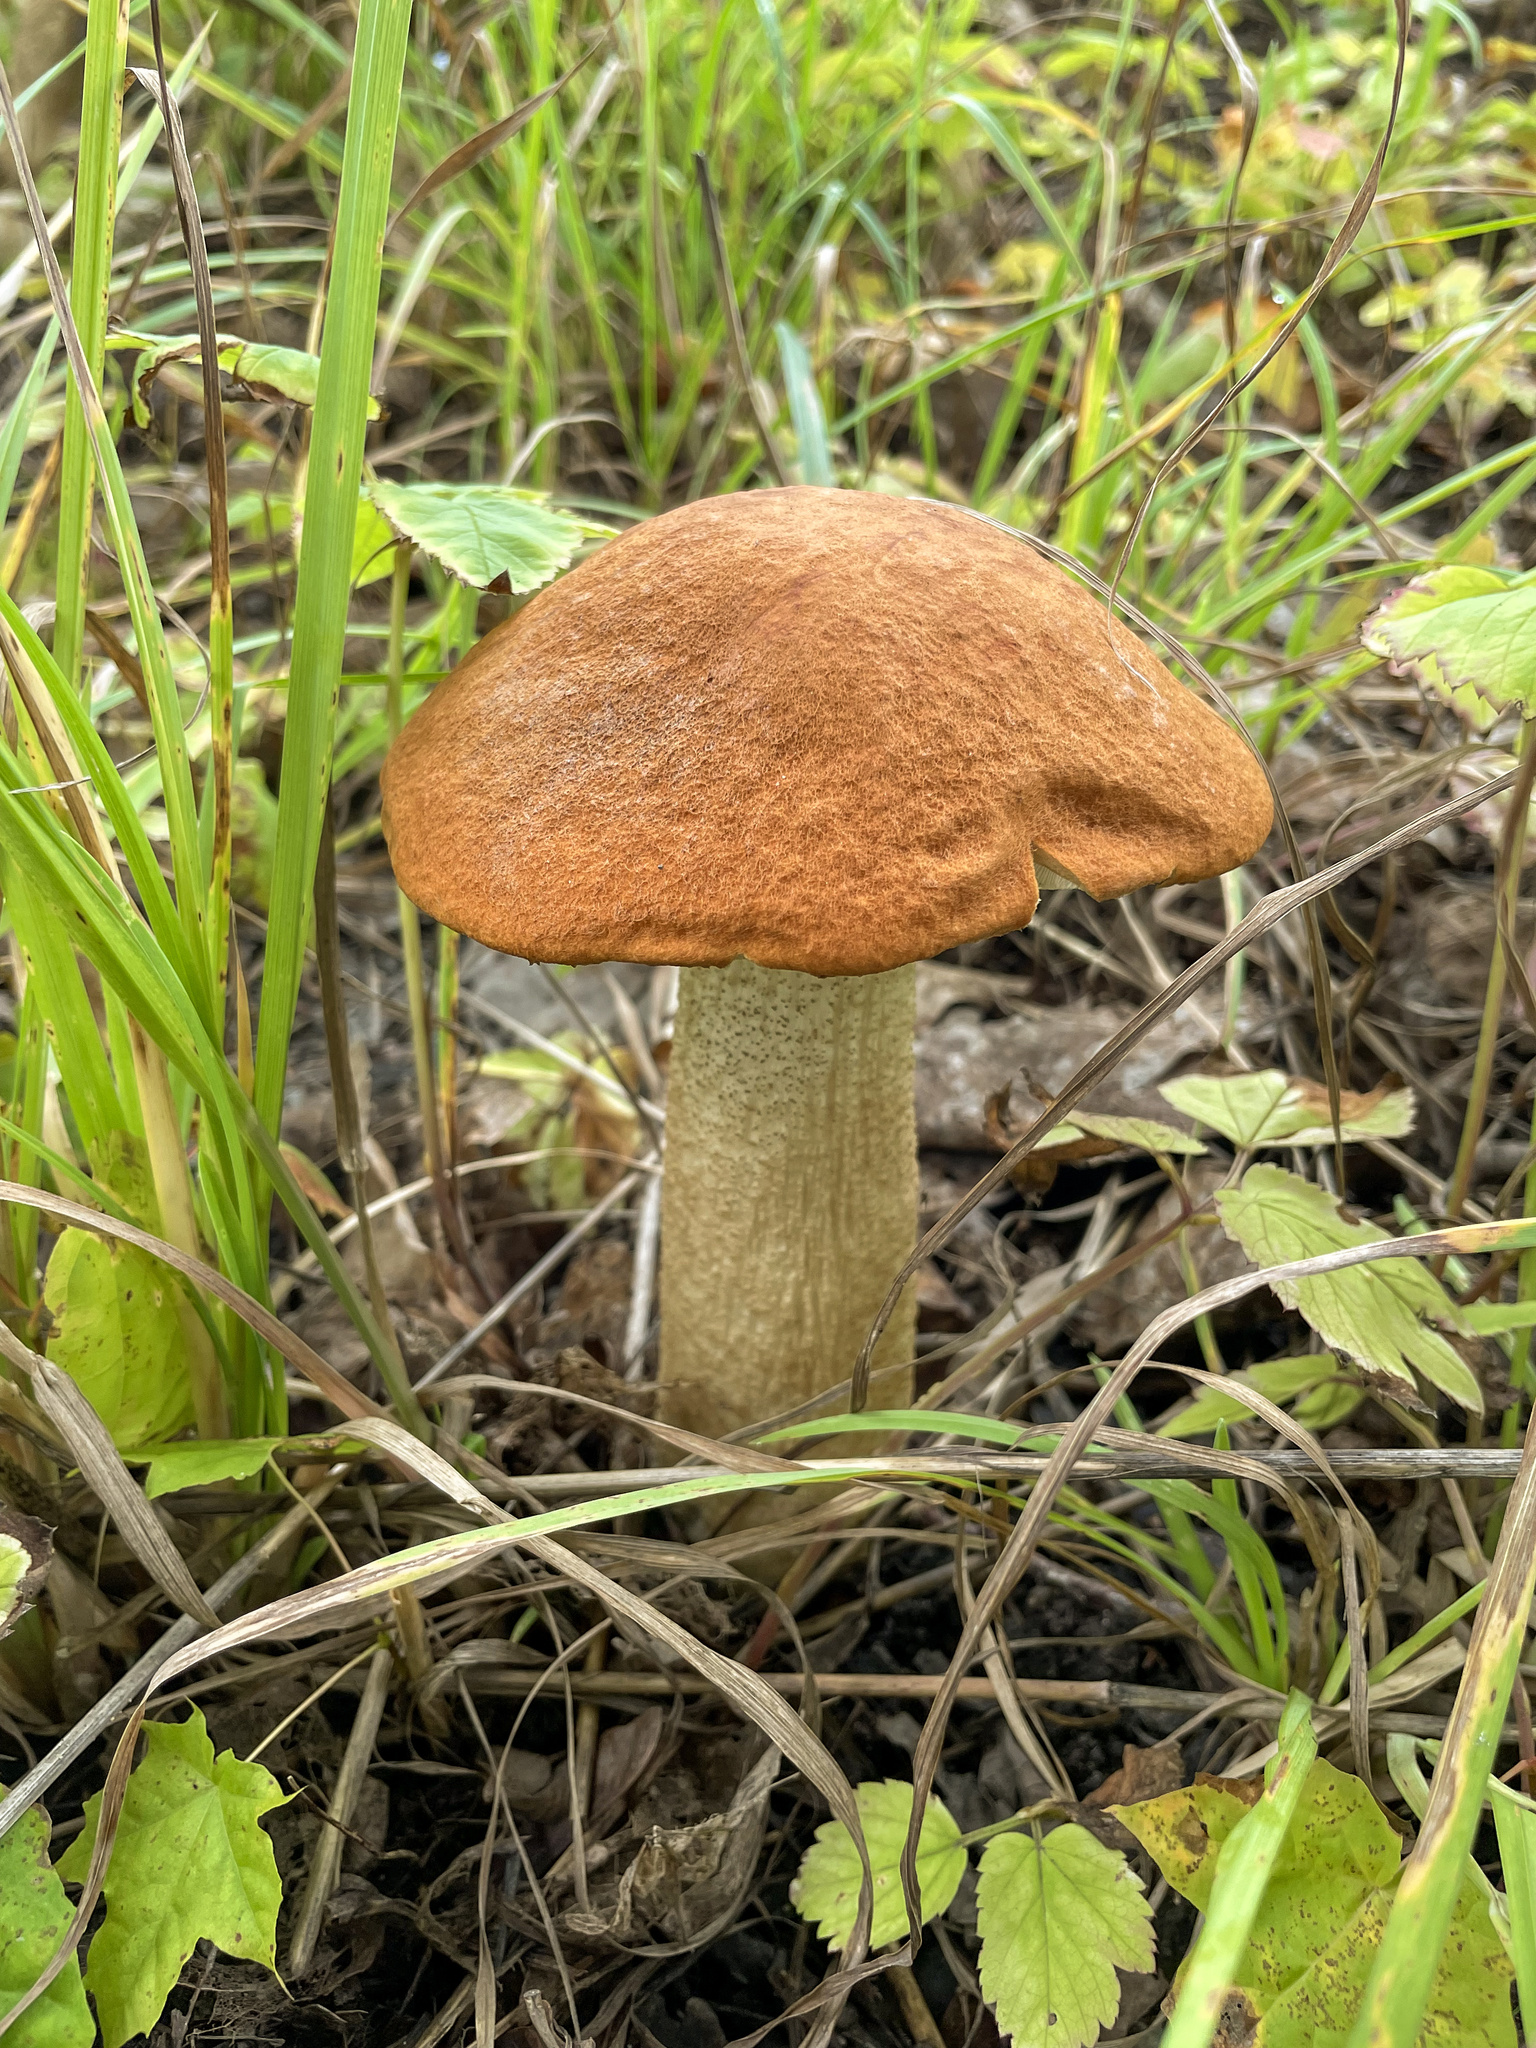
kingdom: Fungi
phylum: Basidiomycota
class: Agaricomycetes
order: Boletales
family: Boletaceae
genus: Leccinum
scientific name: Leccinum albostipitatum
